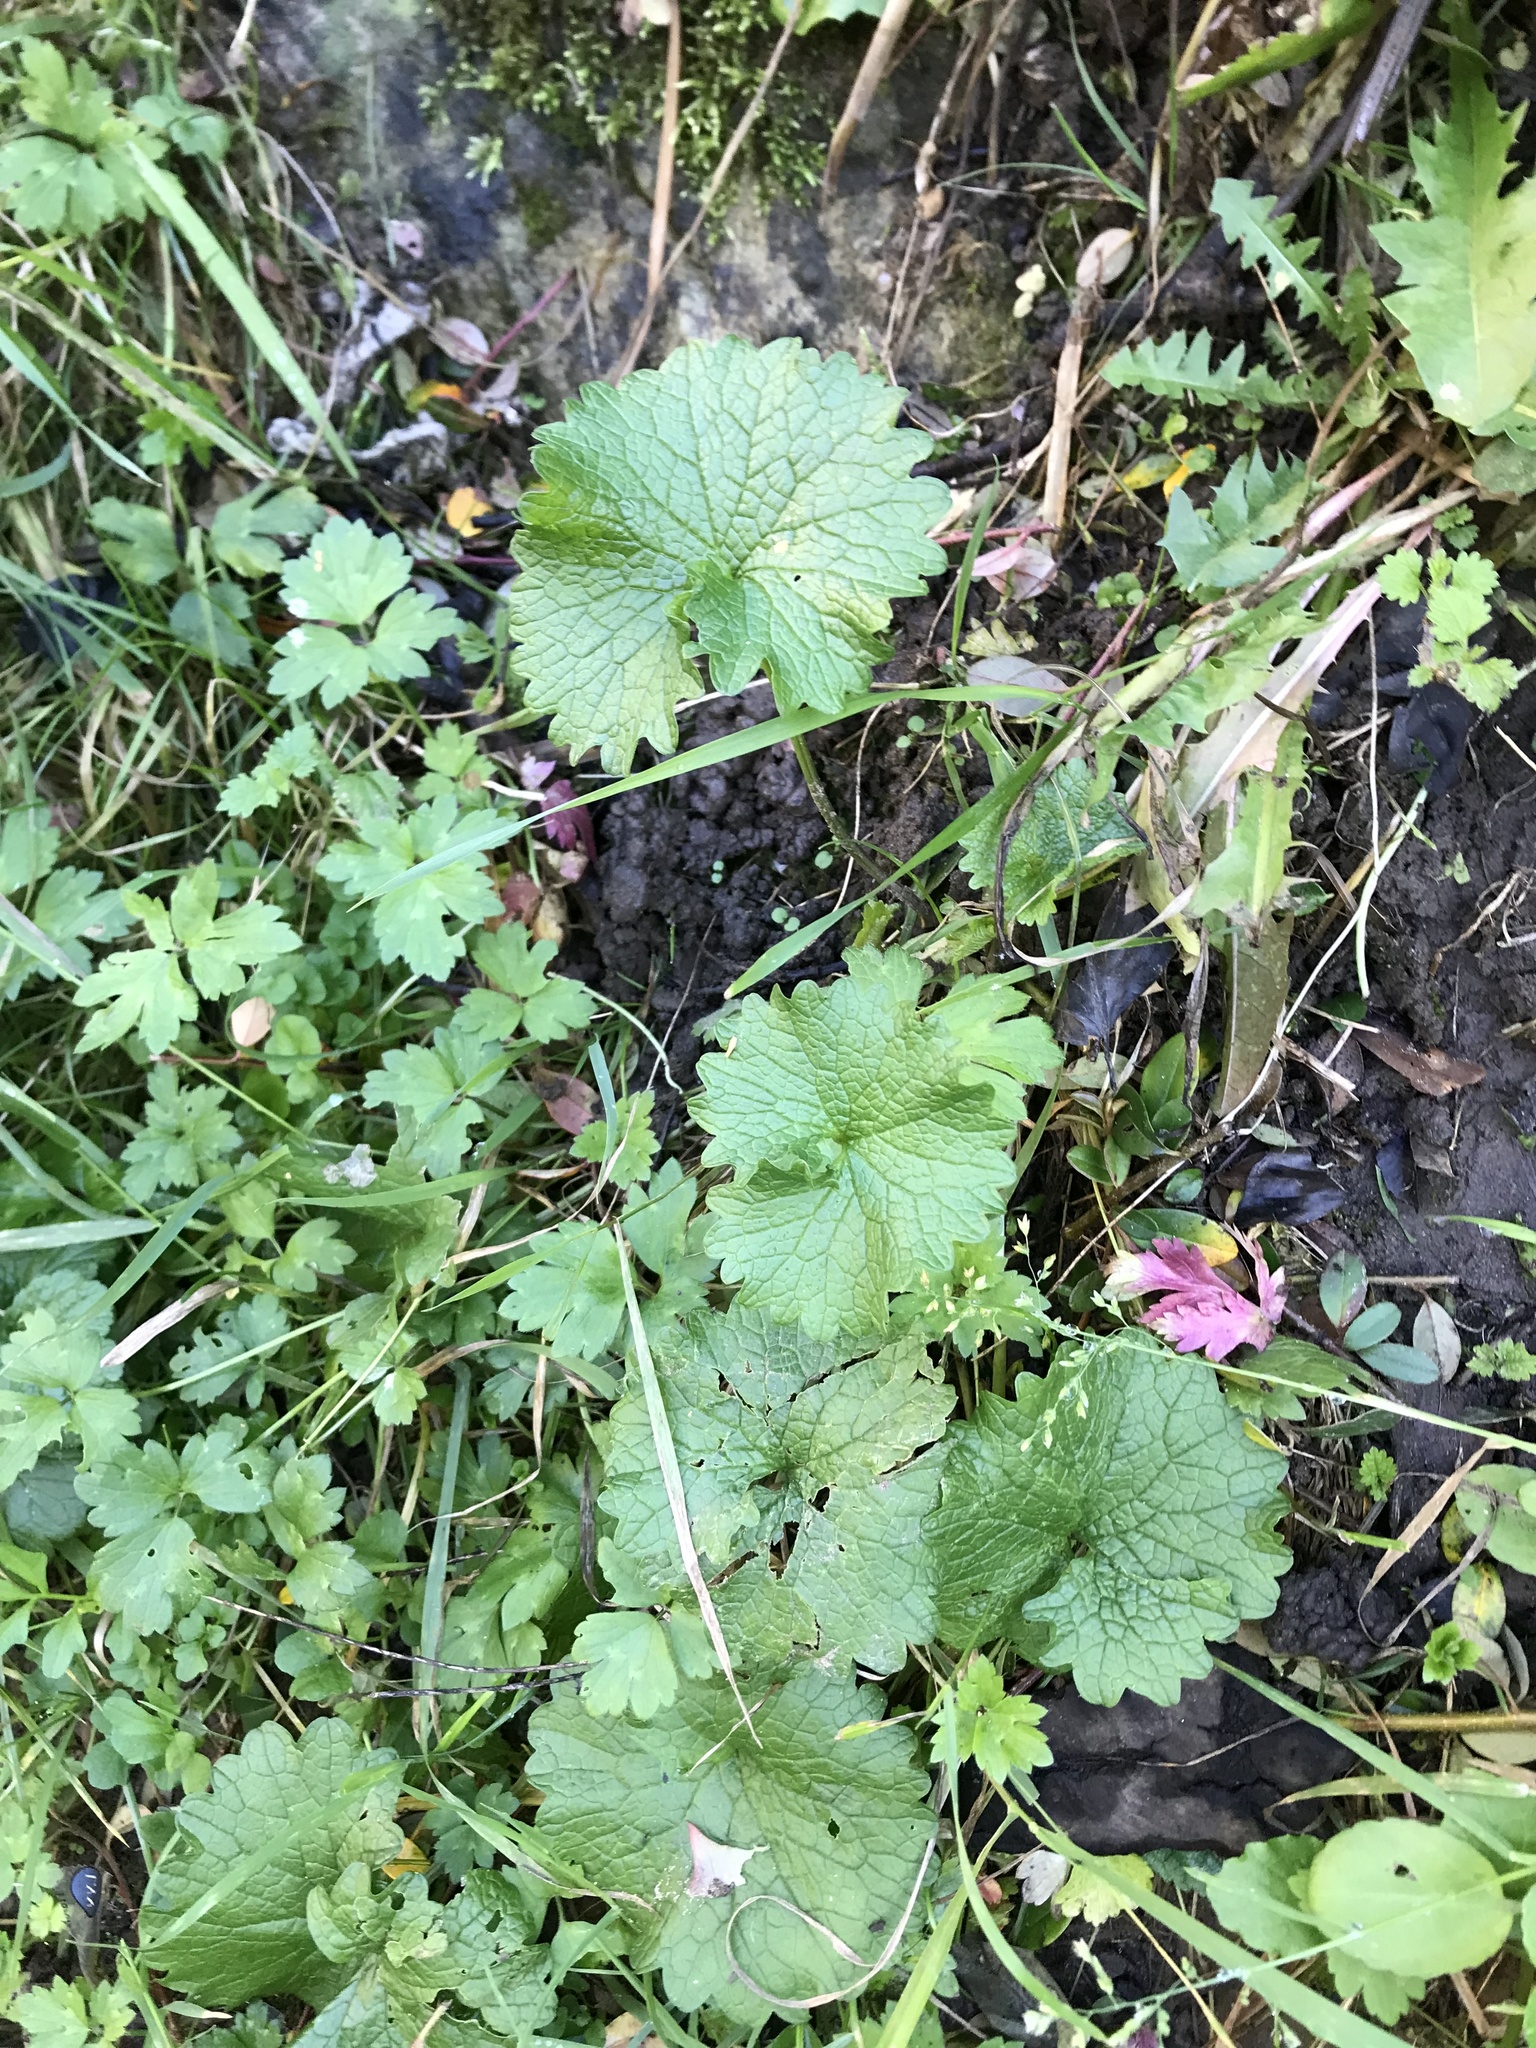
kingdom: Plantae
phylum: Tracheophyta
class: Magnoliopsida
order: Brassicales
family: Brassicaceae
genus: Alliaria
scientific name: Alliaria petiolata
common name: Garlic mustard
